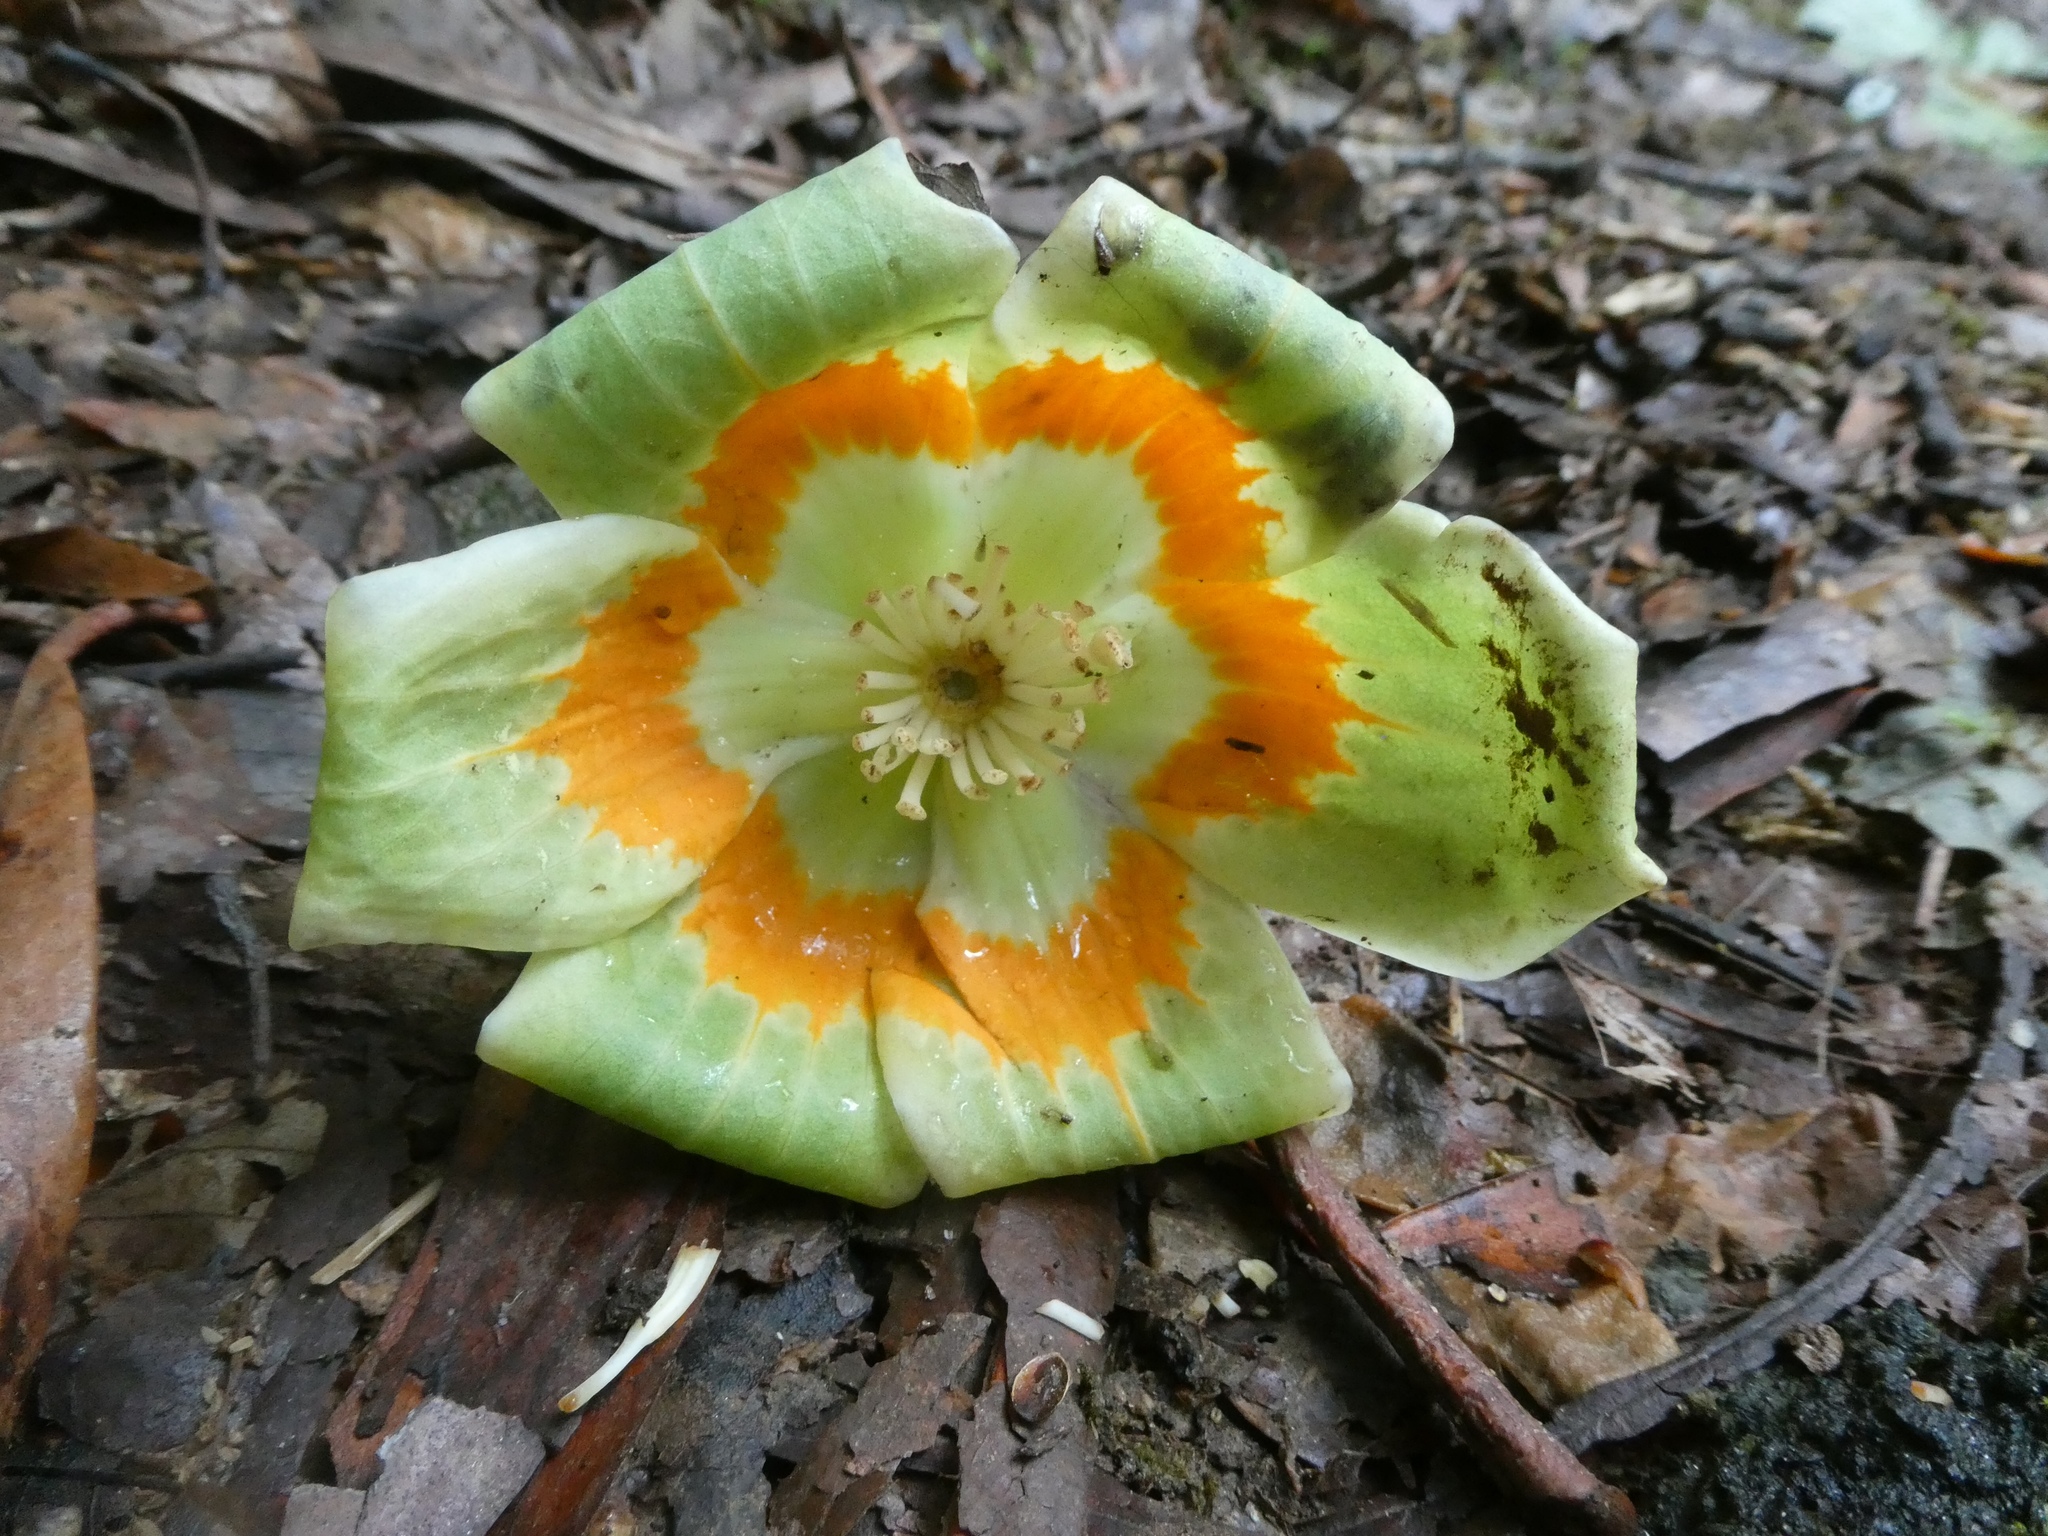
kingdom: Plantae
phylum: Tracheophyta
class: Magnoliopsida
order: Magnoliales
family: Magnoliaceae
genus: Liriodendron
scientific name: Liriodendron tulipifera
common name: Tulip tree
